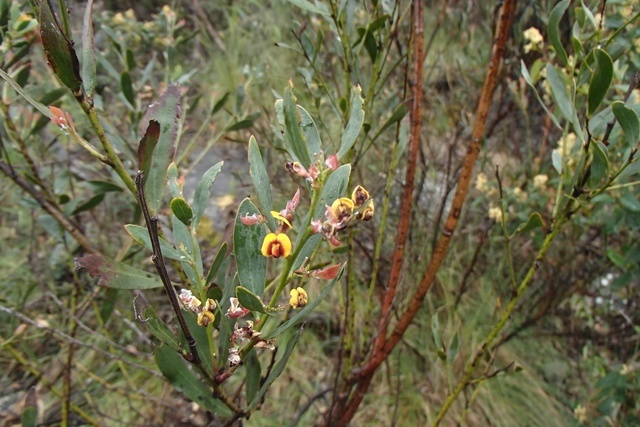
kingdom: Plantae
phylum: Tracheophyta
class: Magnoliopsida
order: Fabales
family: Fabaceae
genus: Daviesia
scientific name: Daviesia mimosoides
